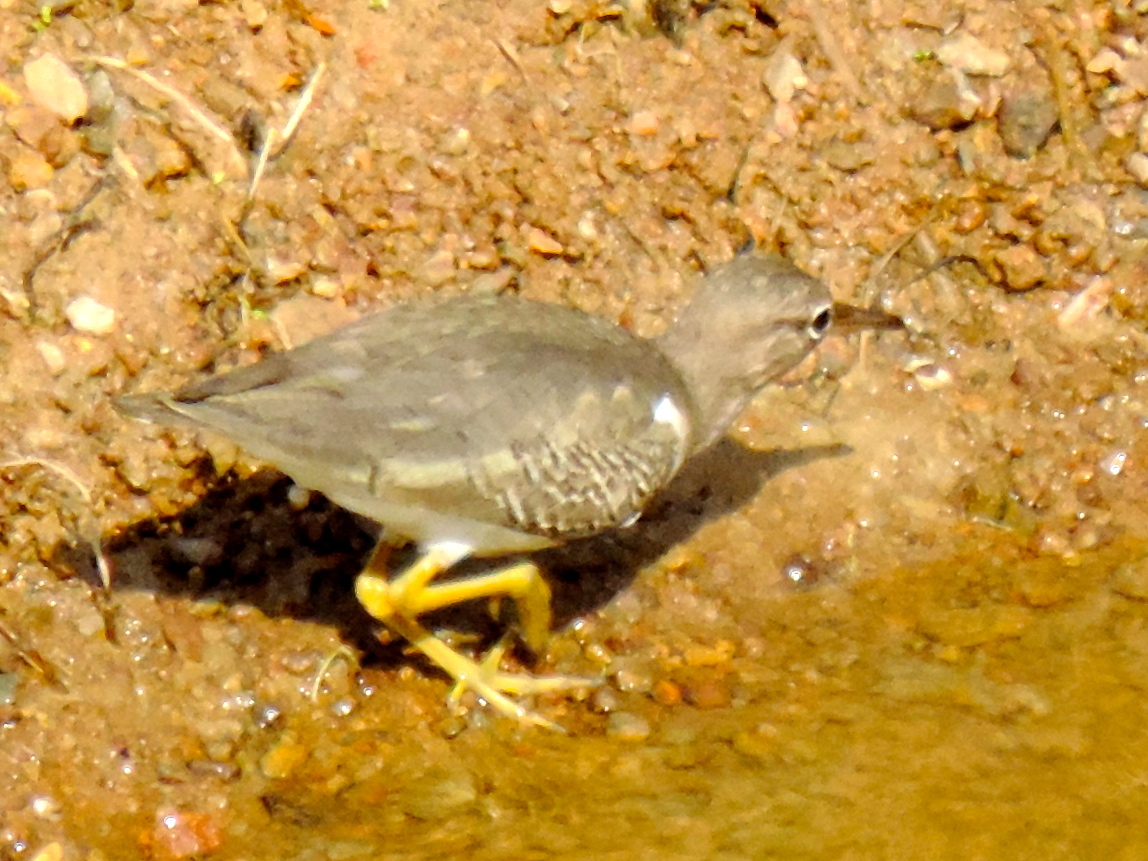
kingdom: Animalia
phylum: Chordata
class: Aves
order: Charadriiformes
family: Scolopacidae
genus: Actitis
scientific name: Actitis macularius
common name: Spotted sandpiper
